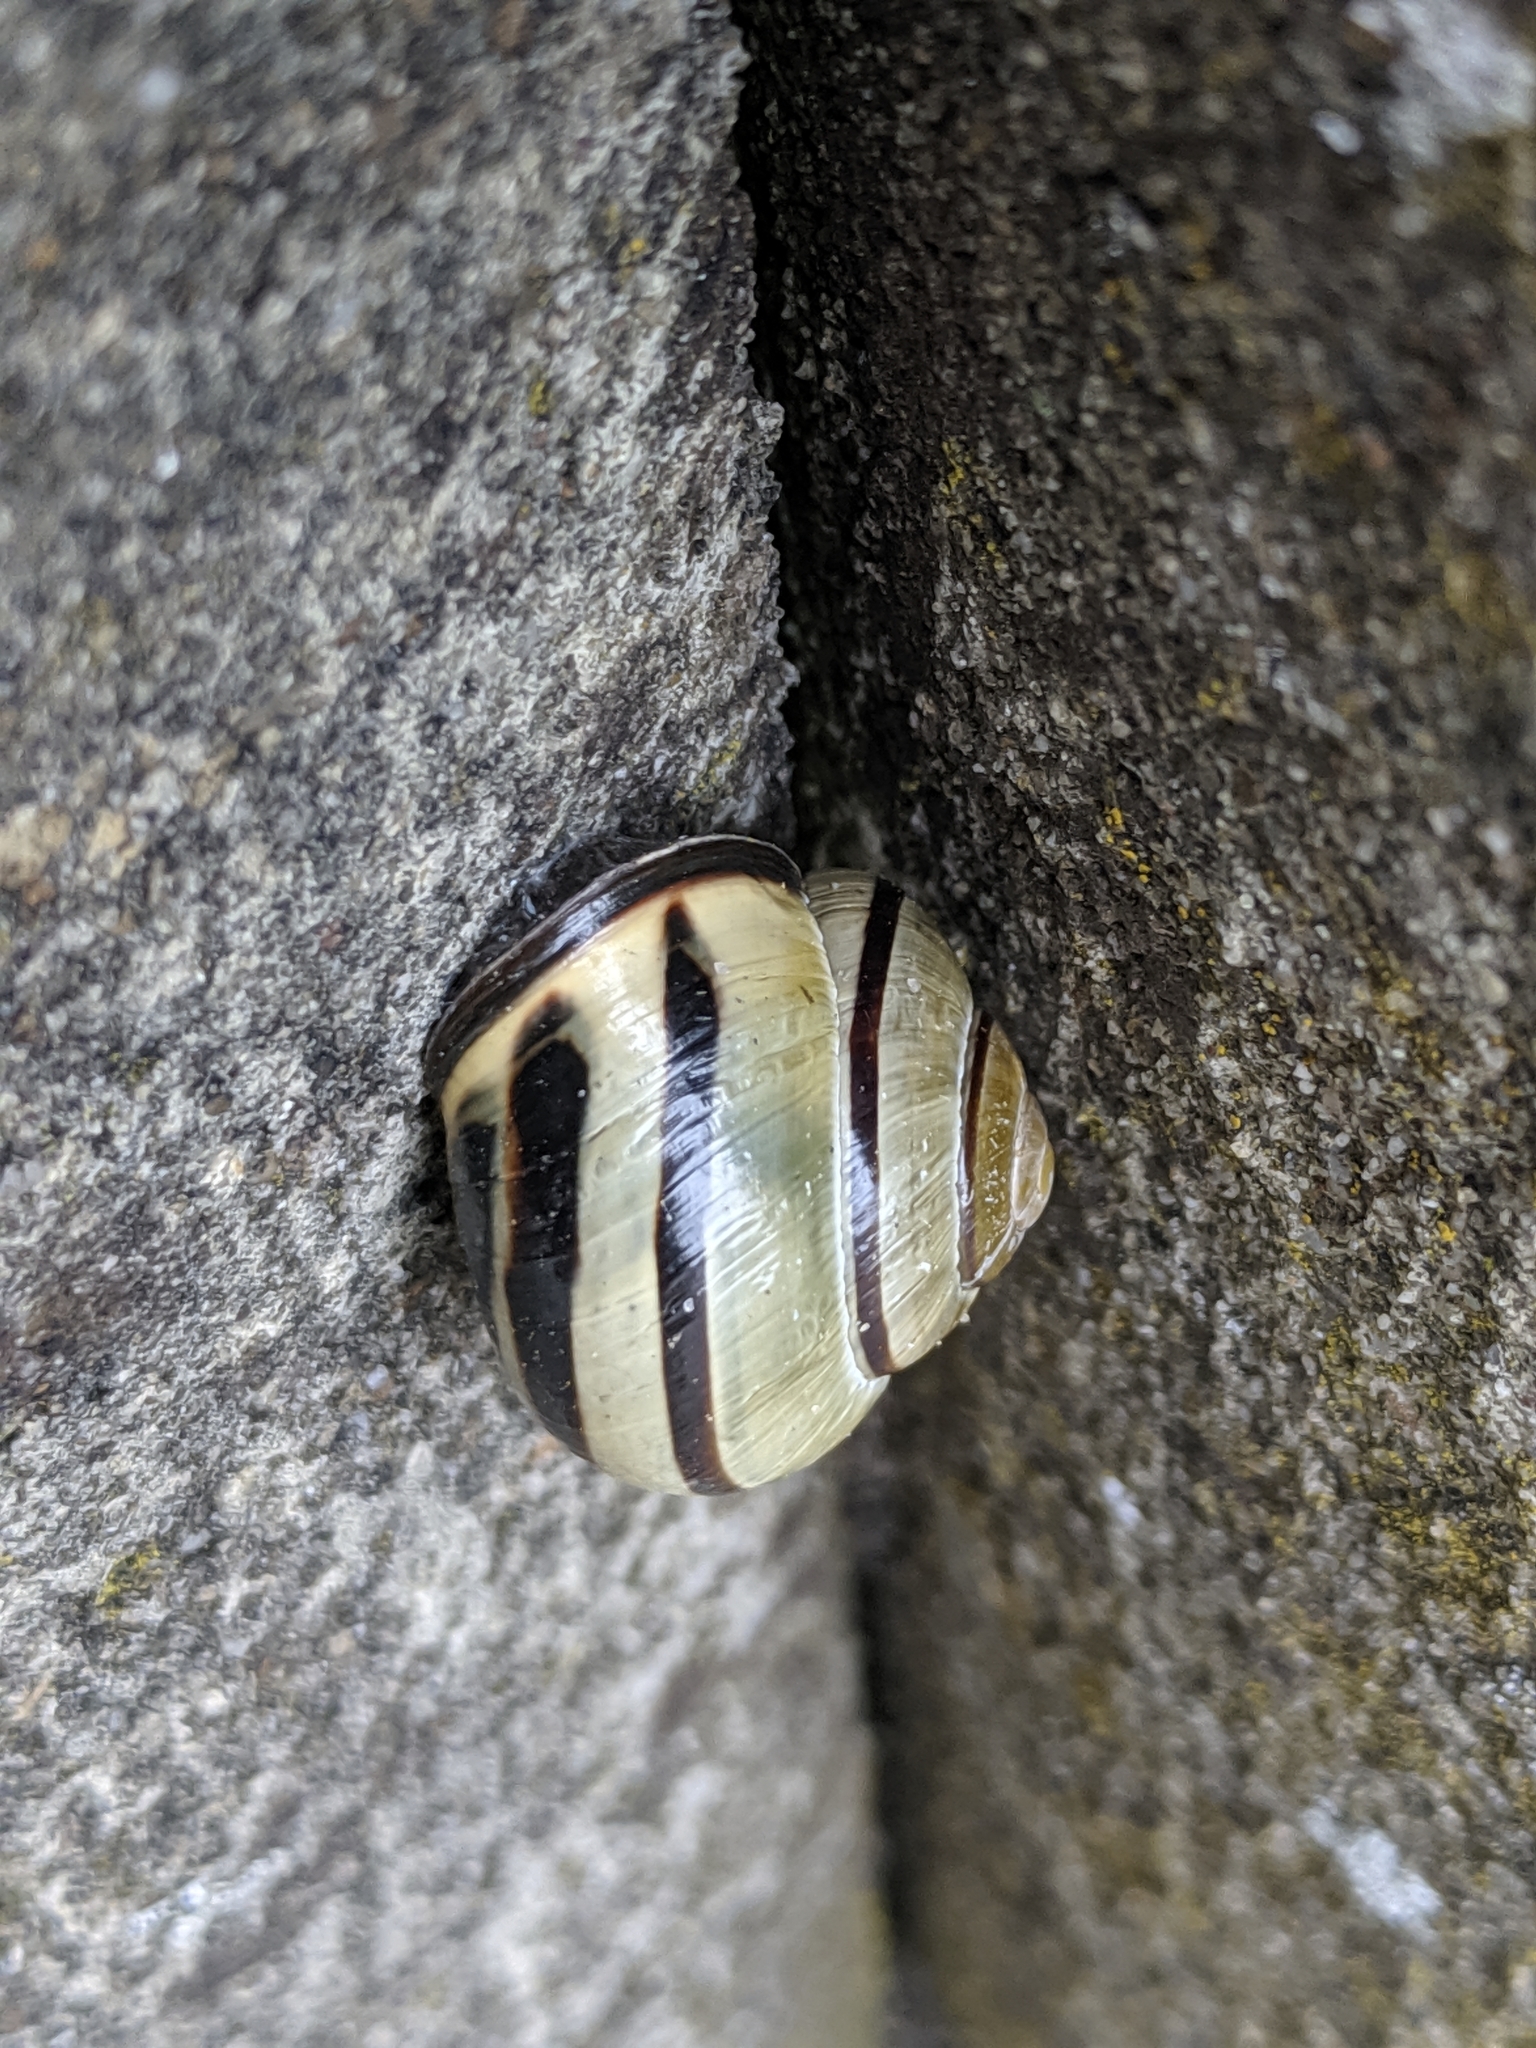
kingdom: Animalia
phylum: Mollusca
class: Gastropoda
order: Stylommatophora
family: Helicidae
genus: Cepaea
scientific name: Cepaea nemoralis
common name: Grovesnail
